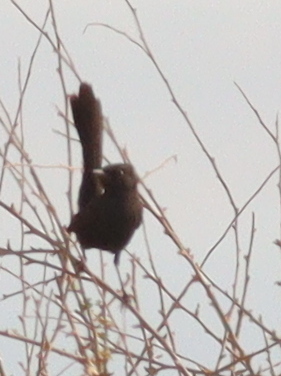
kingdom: Animalia
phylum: Chordata
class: Aves
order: Passeriformes
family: Muscicapidae
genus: Cercotrichas
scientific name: Cercotrichas podobe
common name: Black scrub robin
